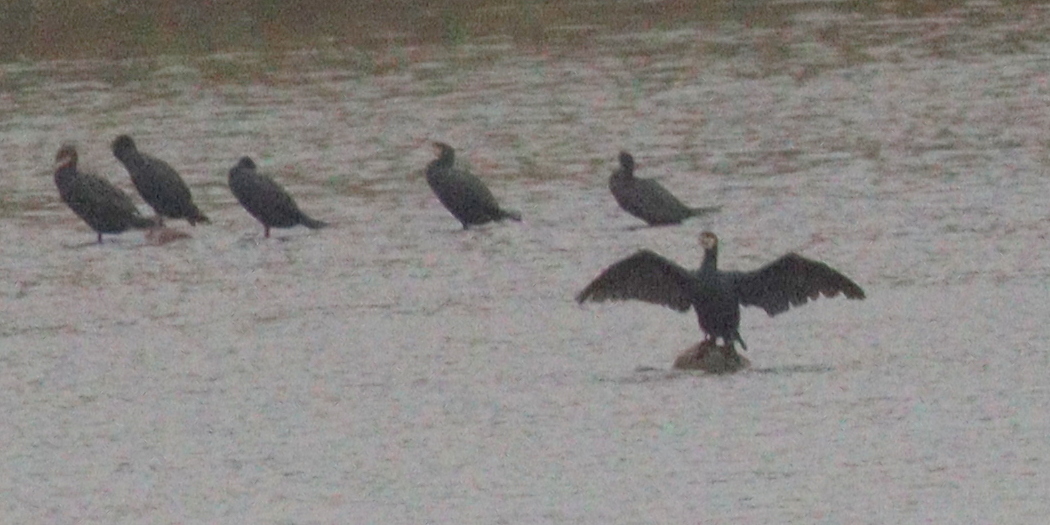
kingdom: Animalia
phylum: Chordata
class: Aves
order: Suliformes
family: Phalacrocoracidae
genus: Phalacrocorax
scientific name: Phalacrocorax carbo
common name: Great cormorant
